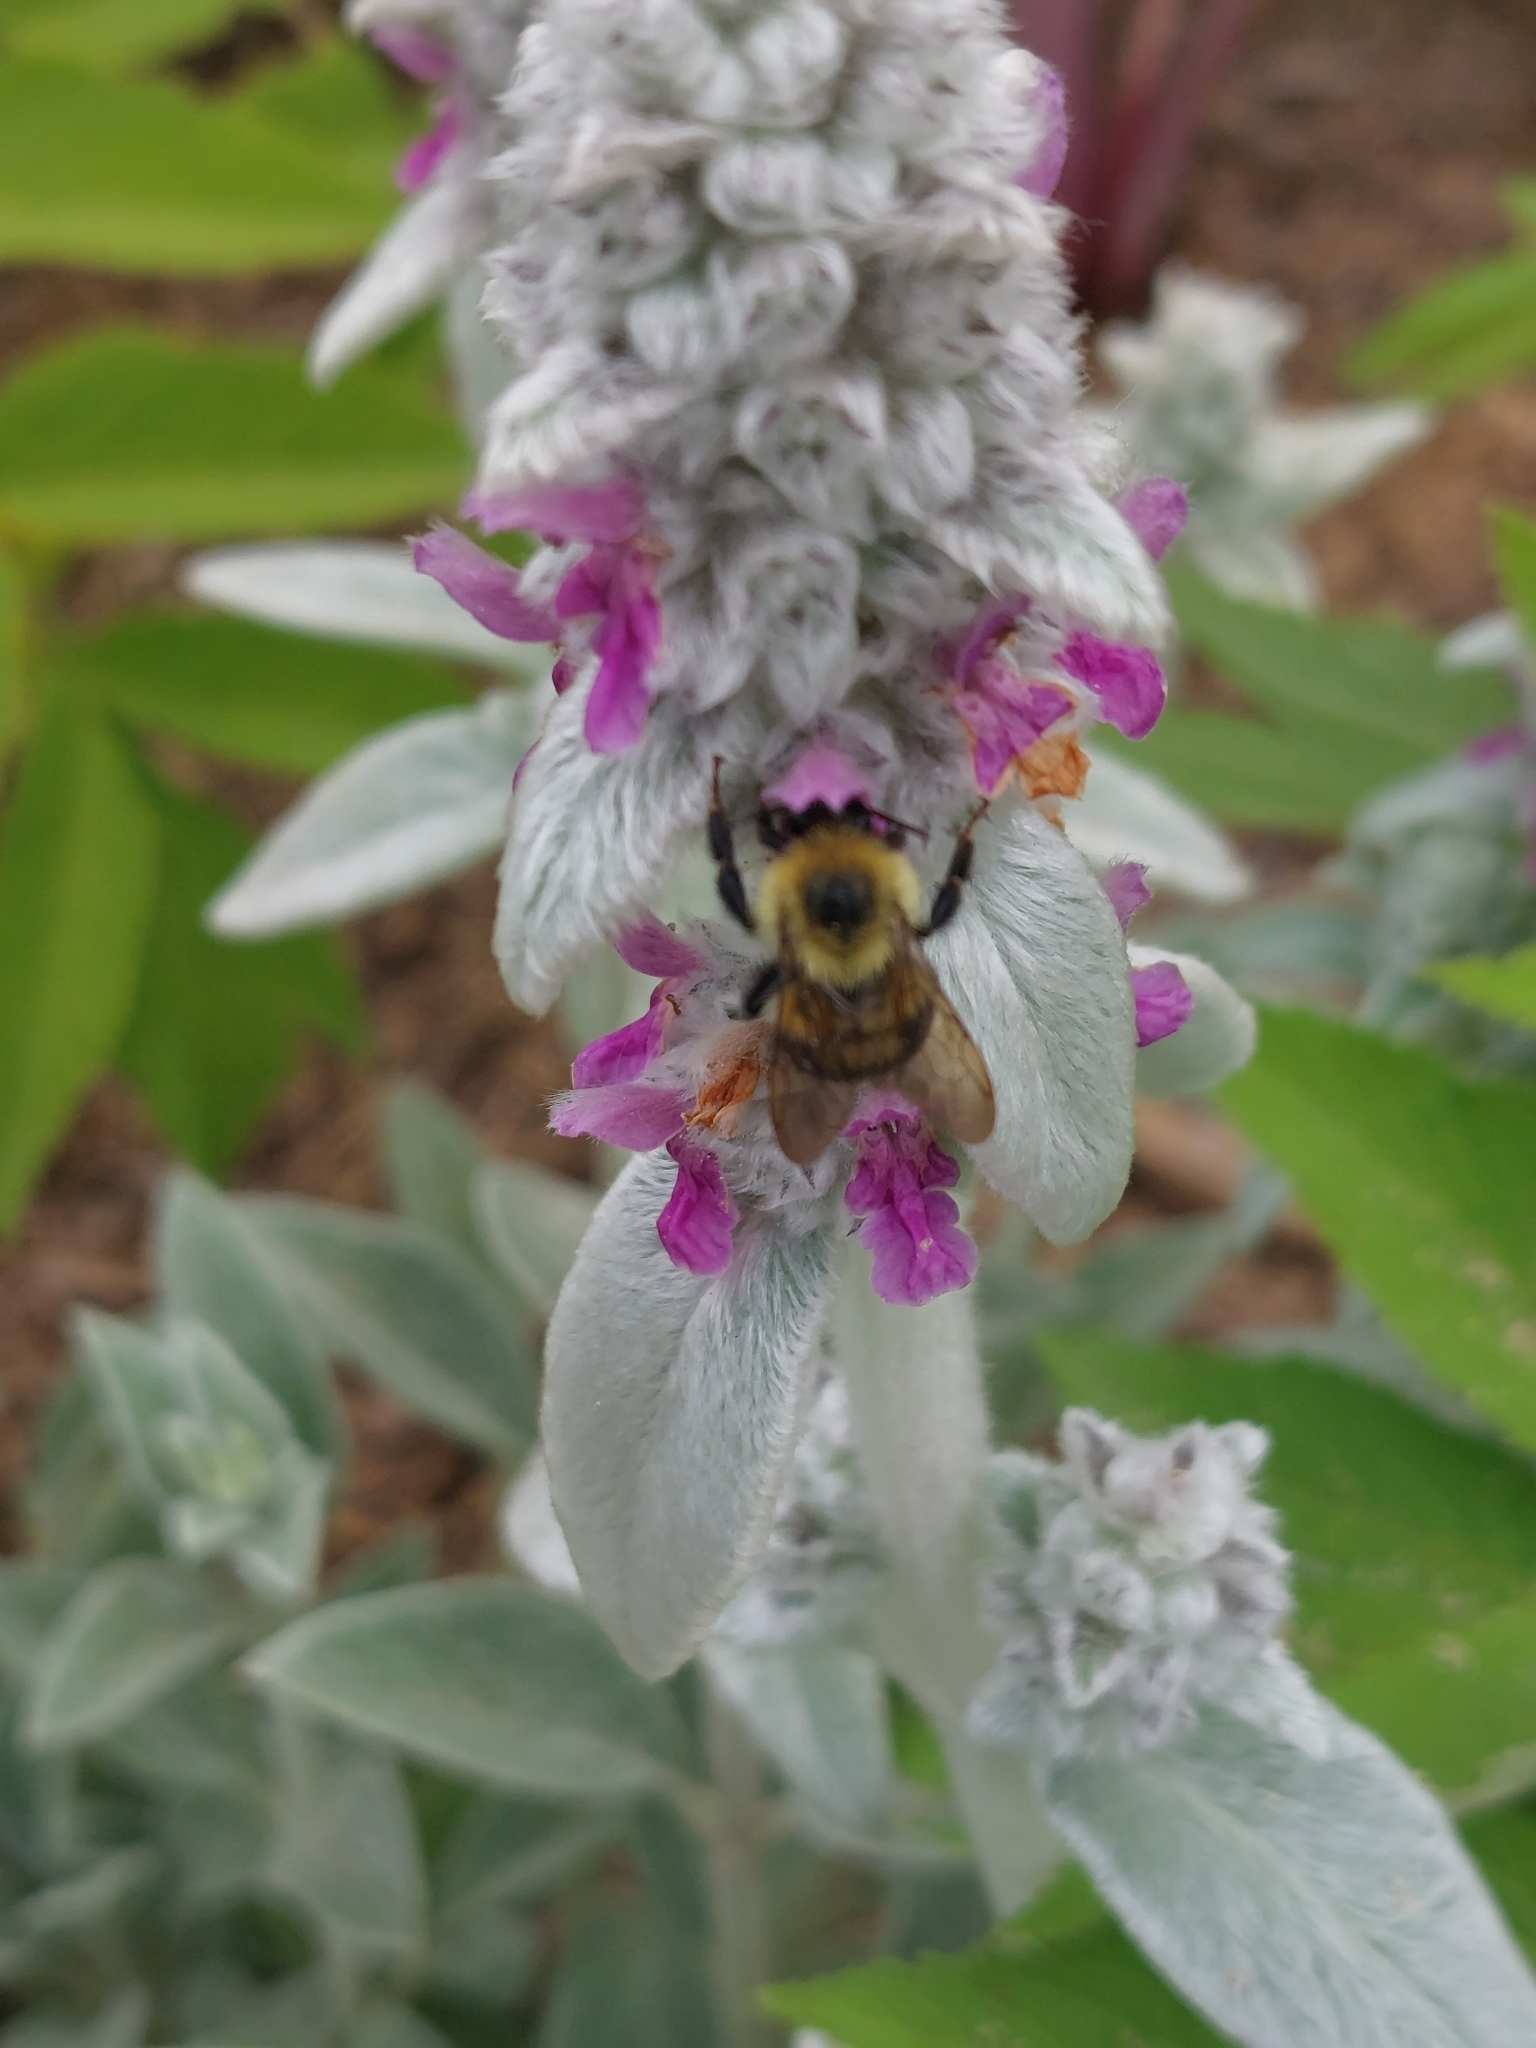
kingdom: Animalia
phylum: Arthropoda
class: Insecta
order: Hymenoptera
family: Apidae
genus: Bombus
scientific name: Bombus bimaculatus
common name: Two-spotted bumble bee
